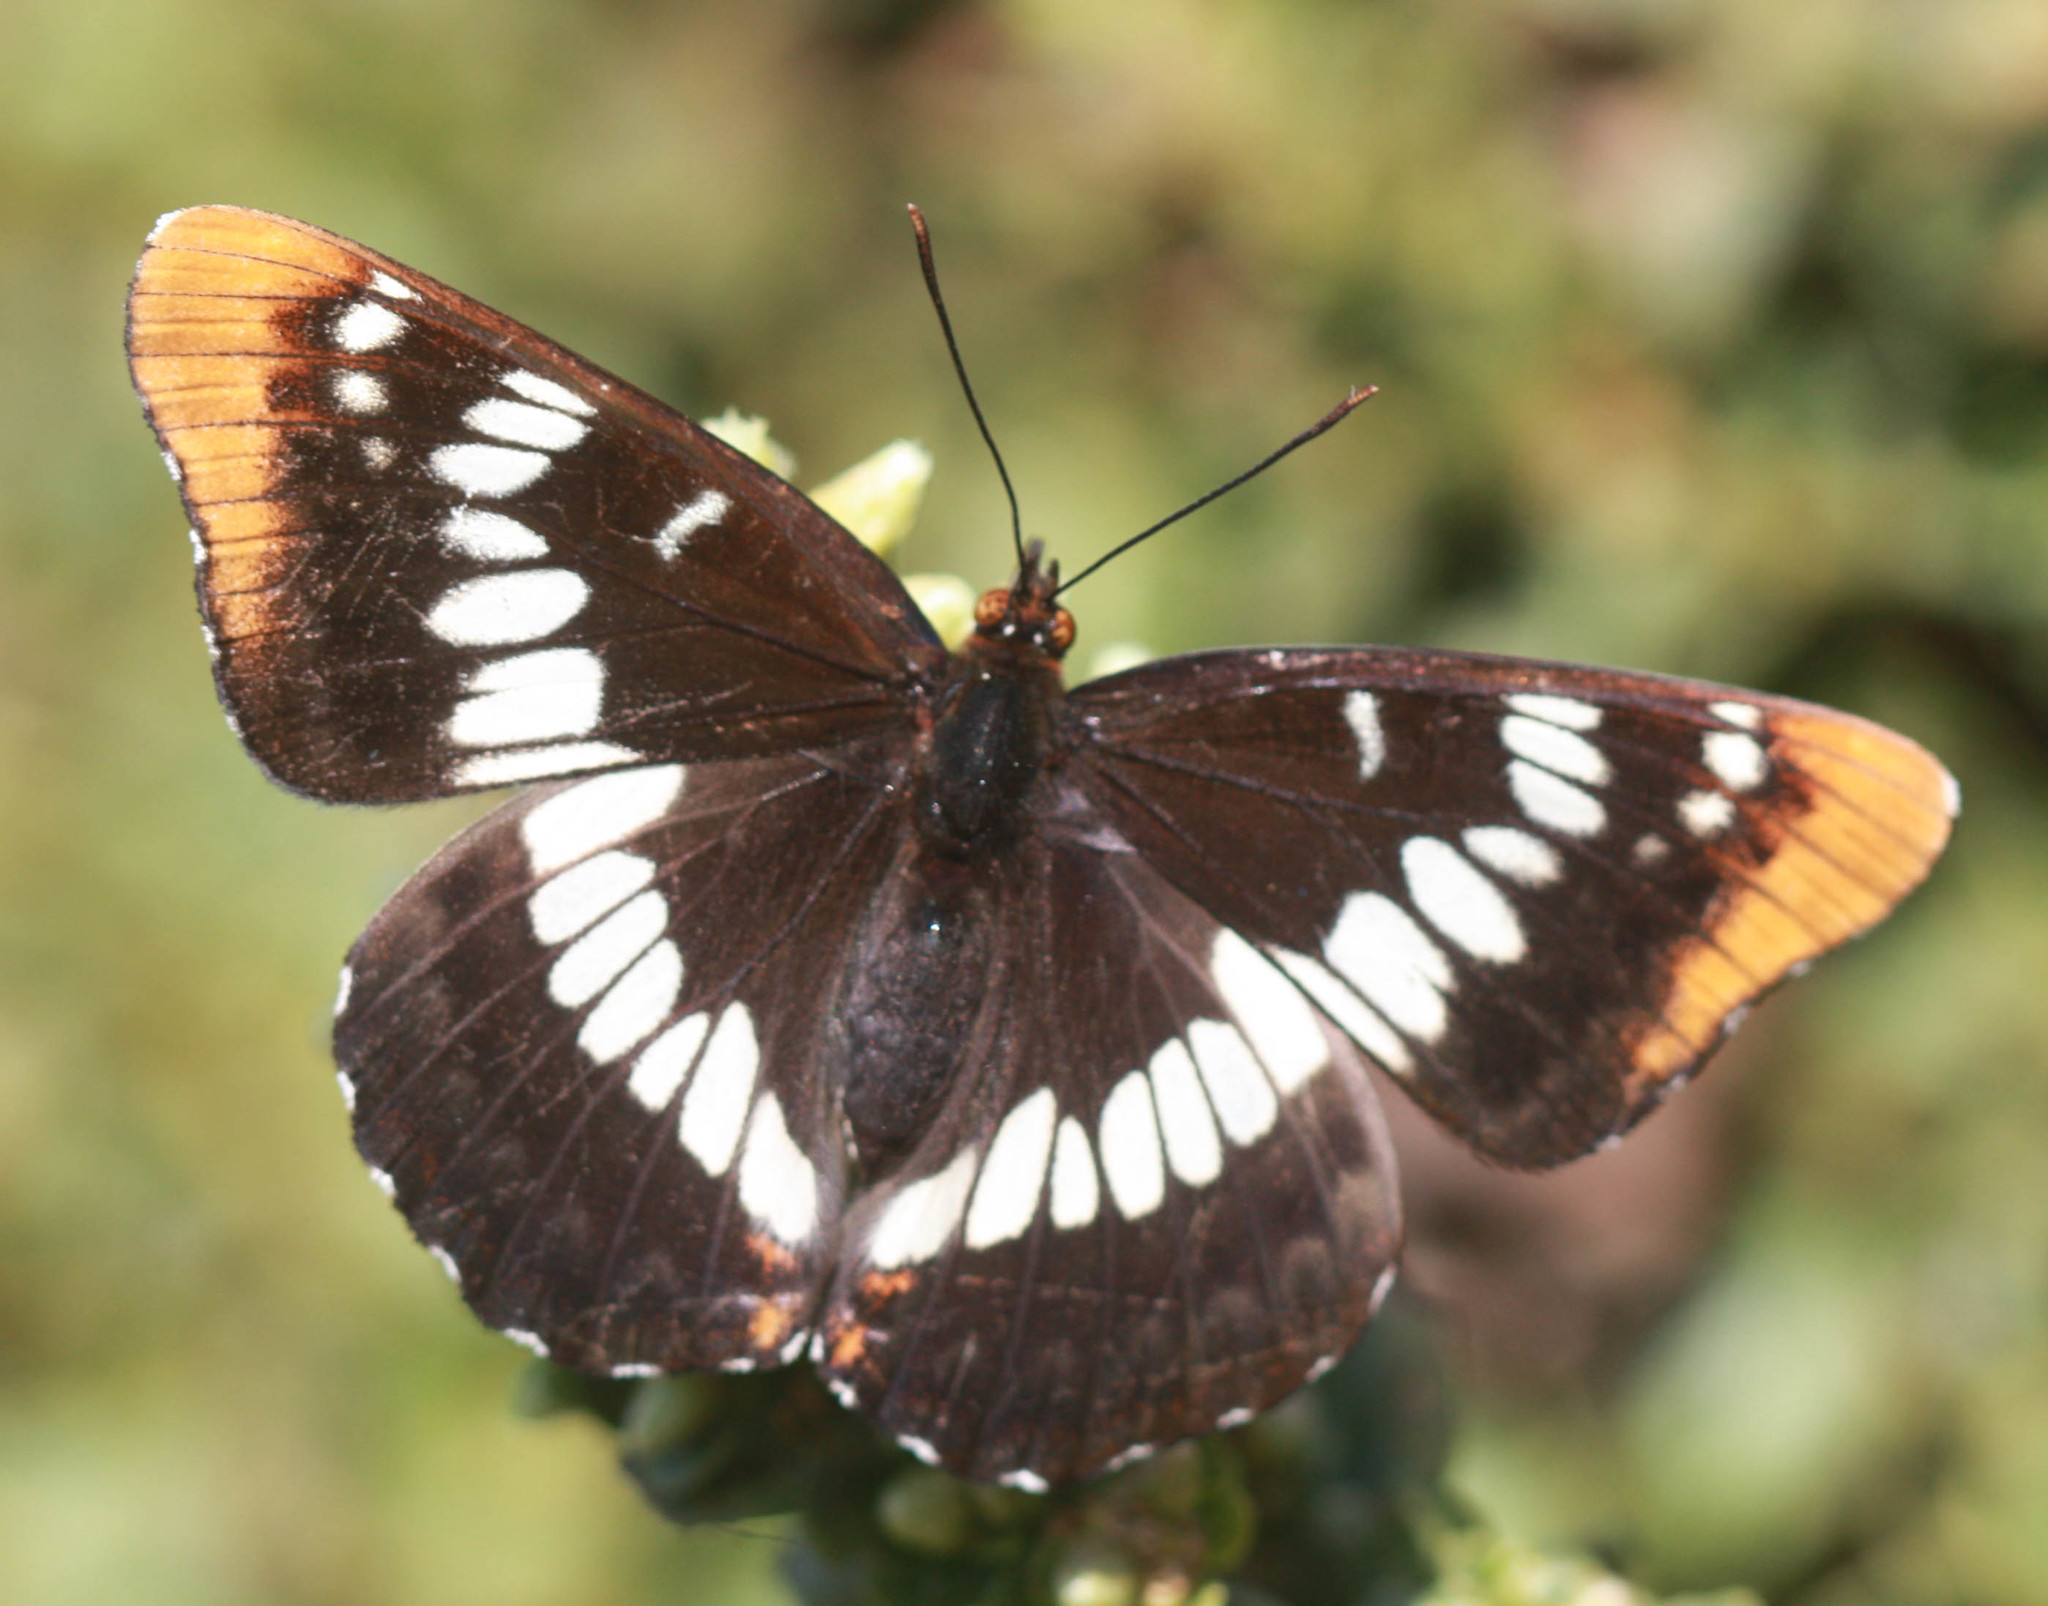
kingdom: Animalia
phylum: Arthropoda
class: Insecta
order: Lepidoptera
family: Nymphalidae
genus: Limenitis
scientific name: Limenitis lorquini
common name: Lorquin's admiral
